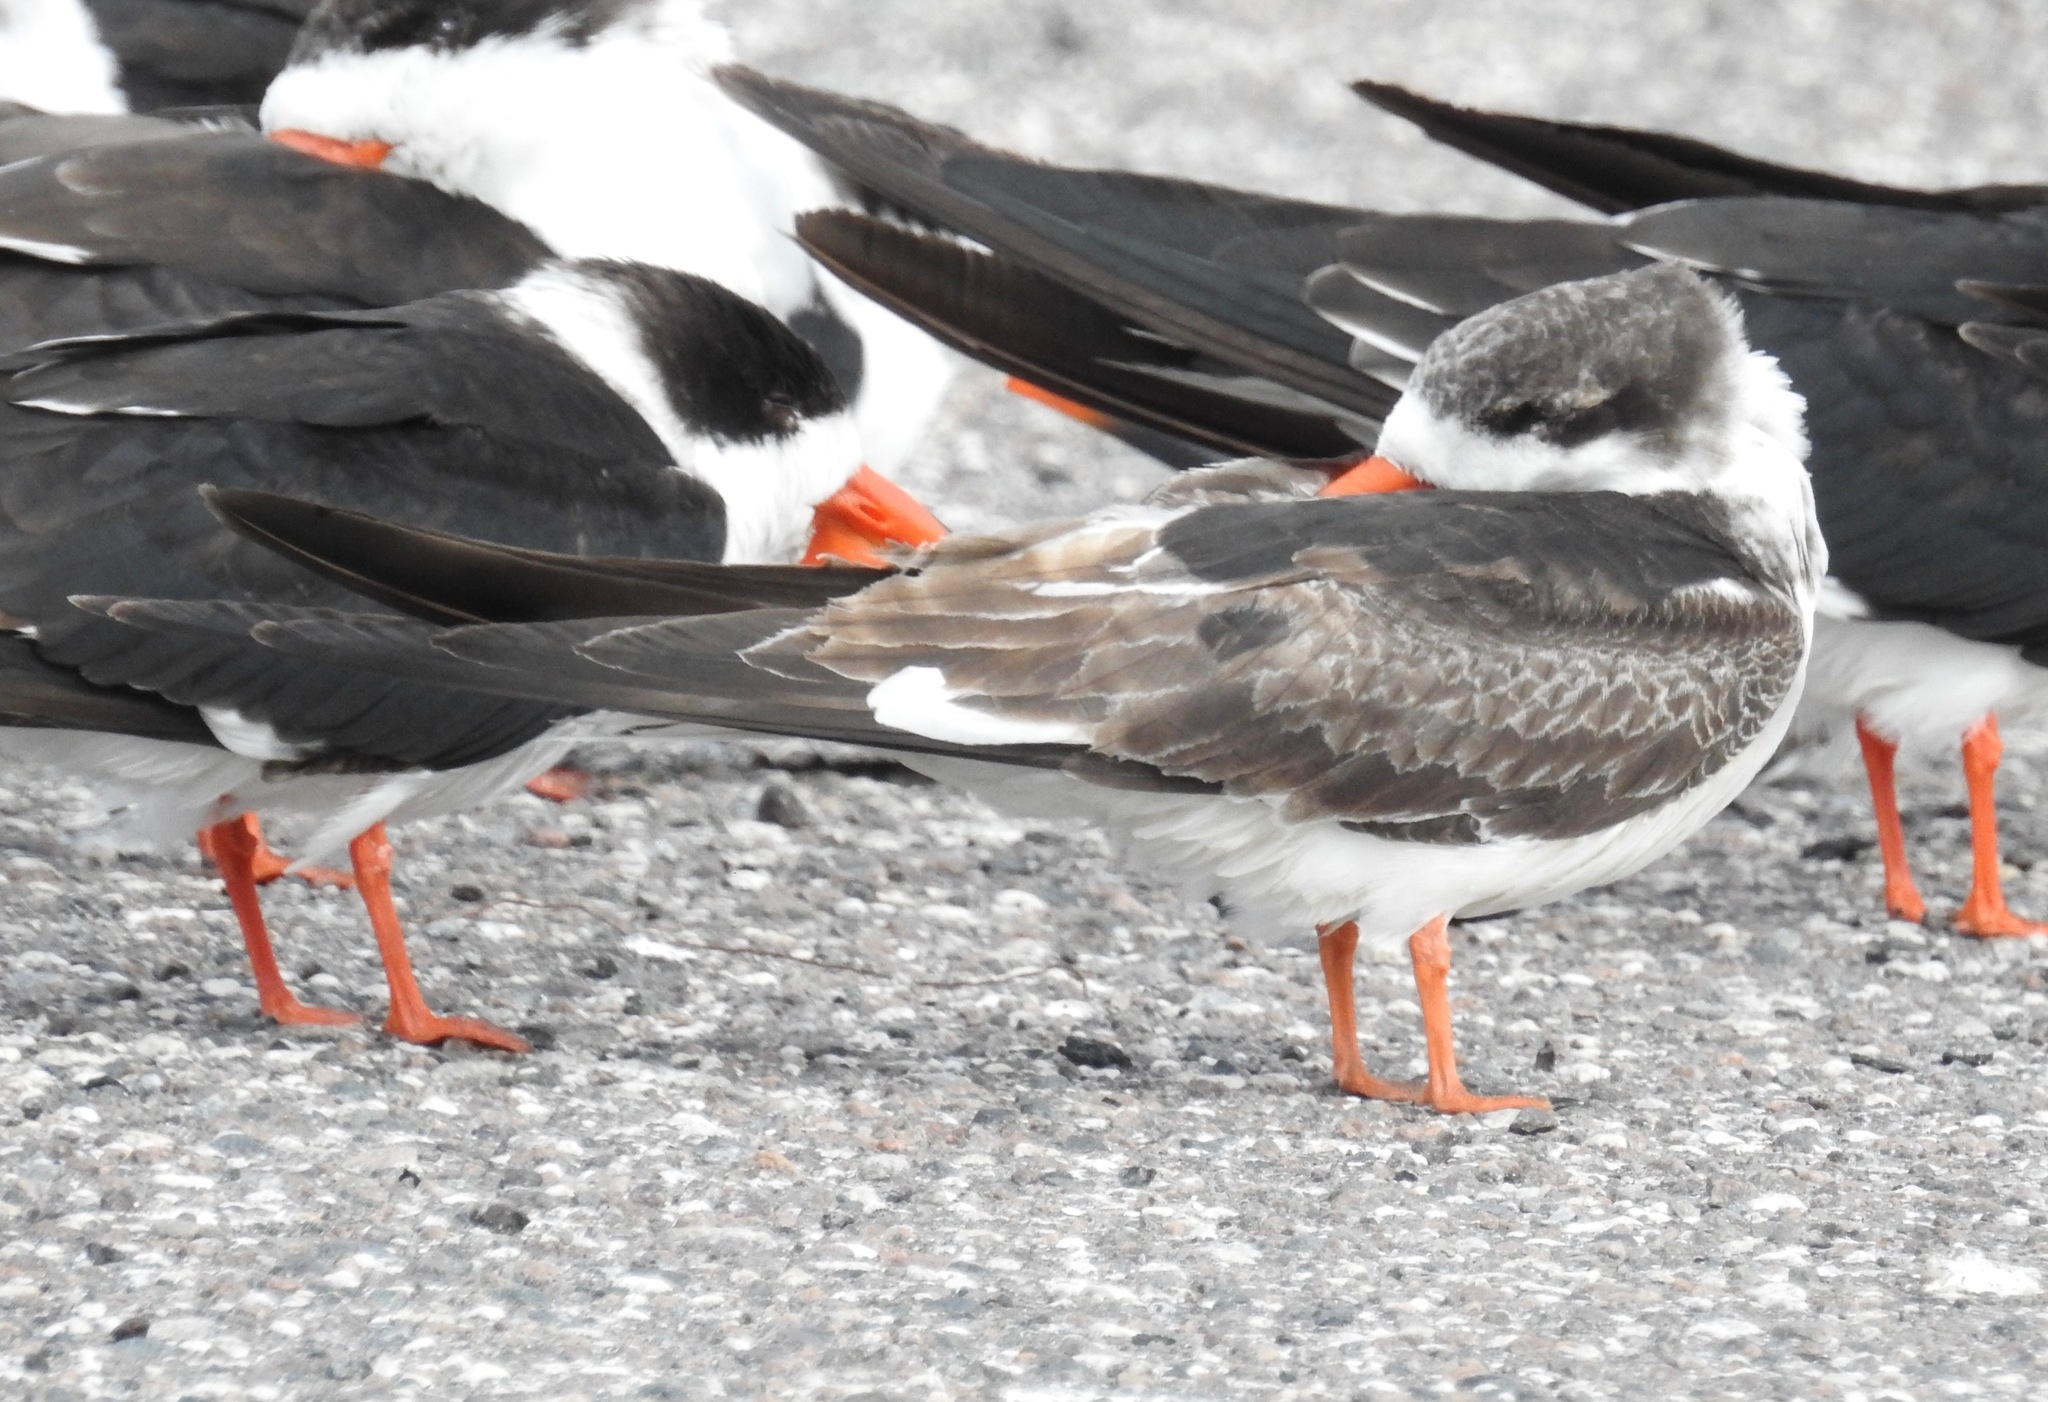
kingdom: Animalia
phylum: Chordata
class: Aves
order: Charadriiformes
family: Laridae
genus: Rynchops
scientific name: Rynchops niger
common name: Black skimmer
